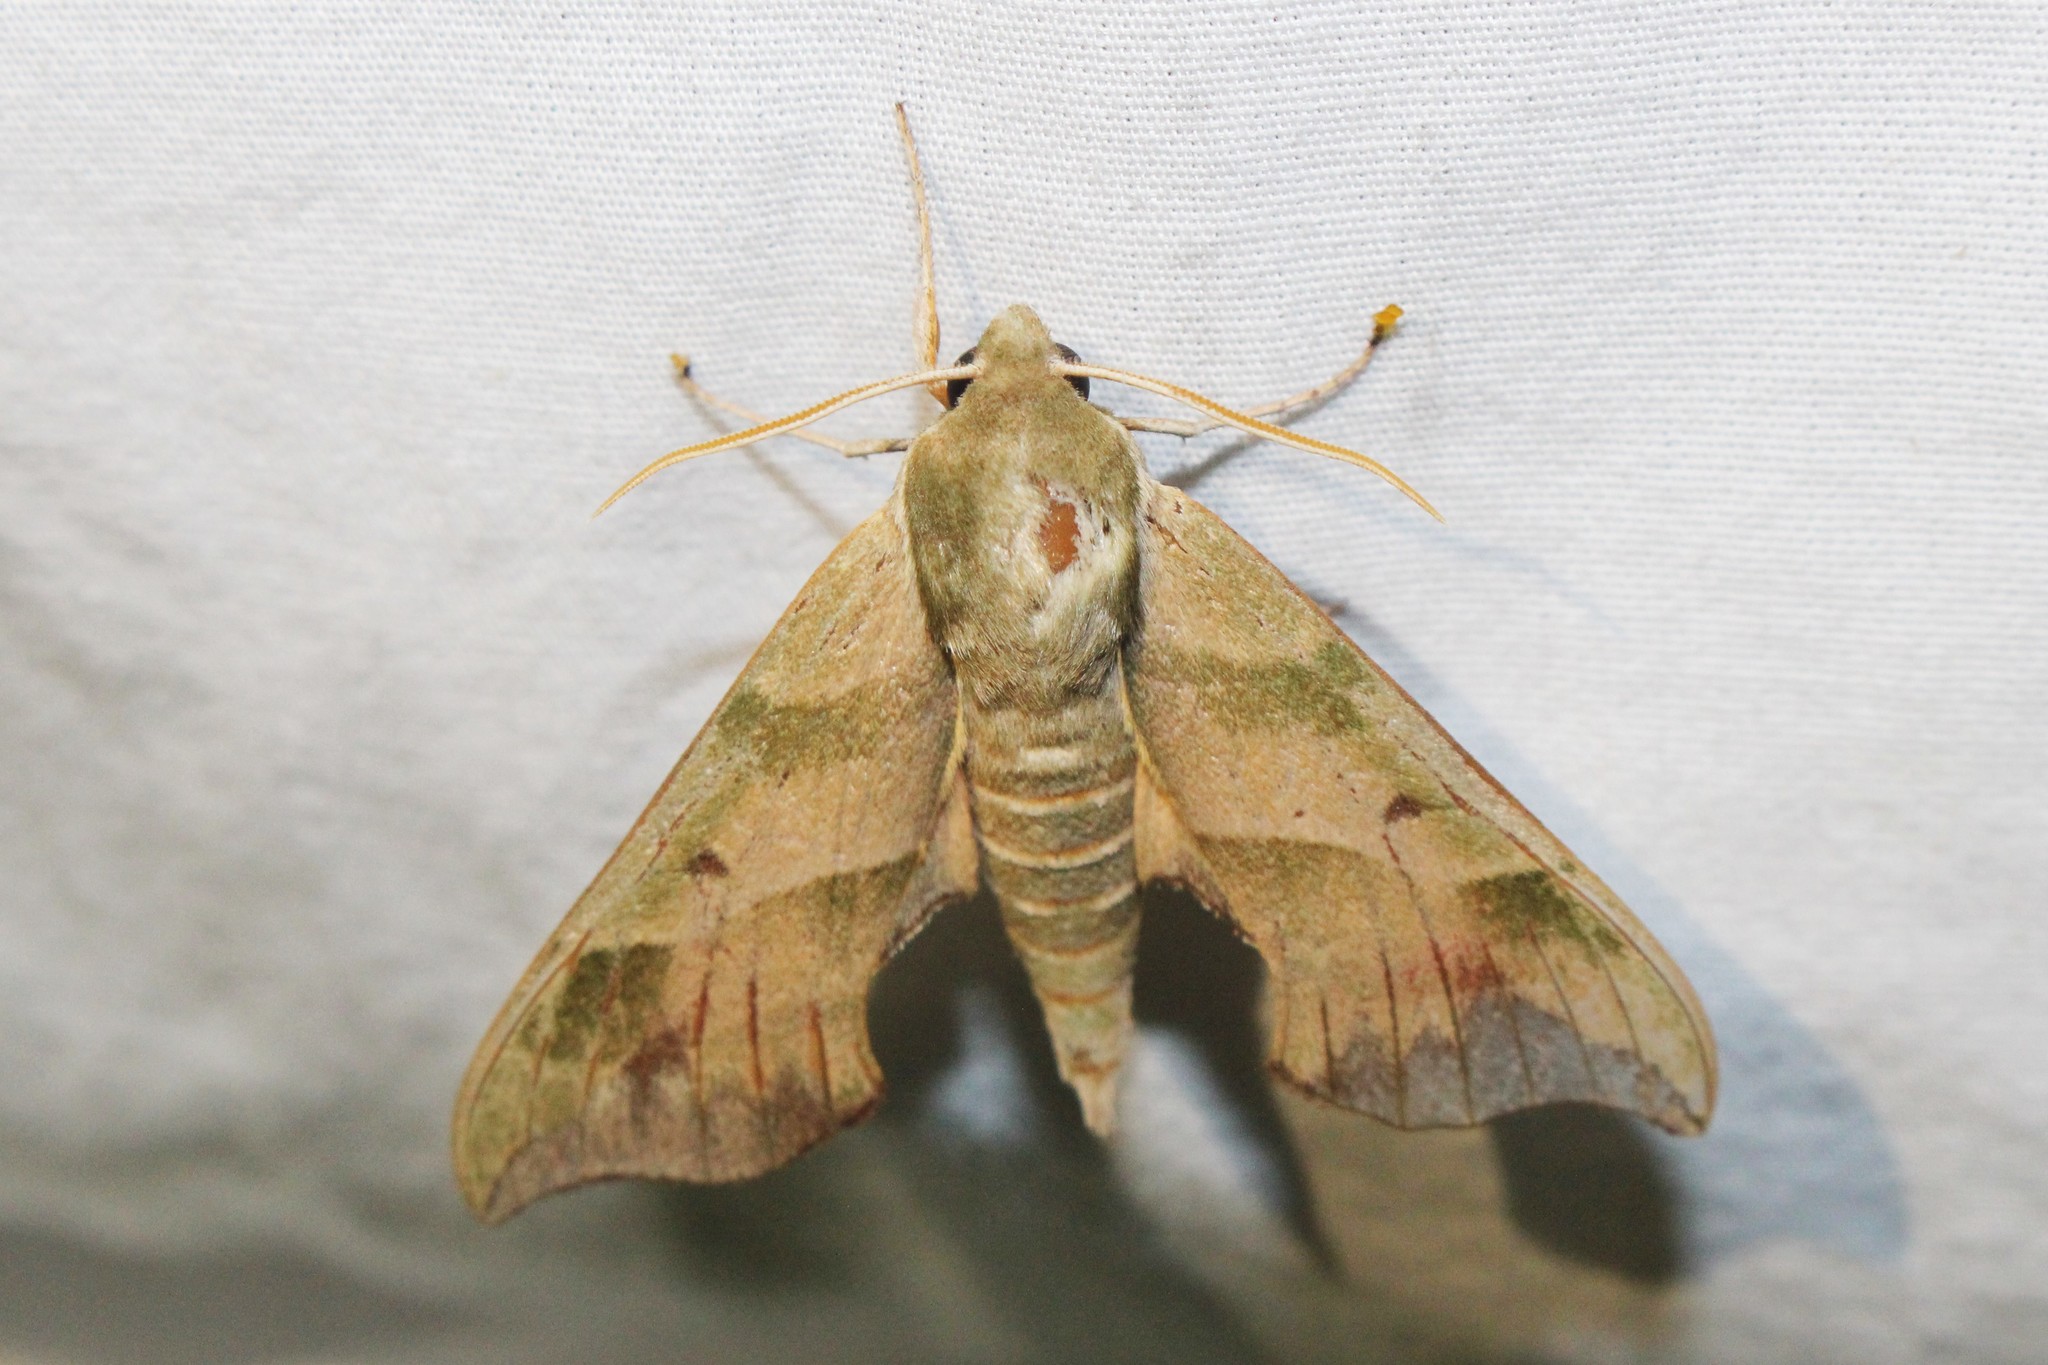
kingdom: Animalia
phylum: Arthropoda
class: Insecta
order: Lepidoptera
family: Sphingidae
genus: Darapsa
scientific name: Darapsa myron
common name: Hog sphinx
